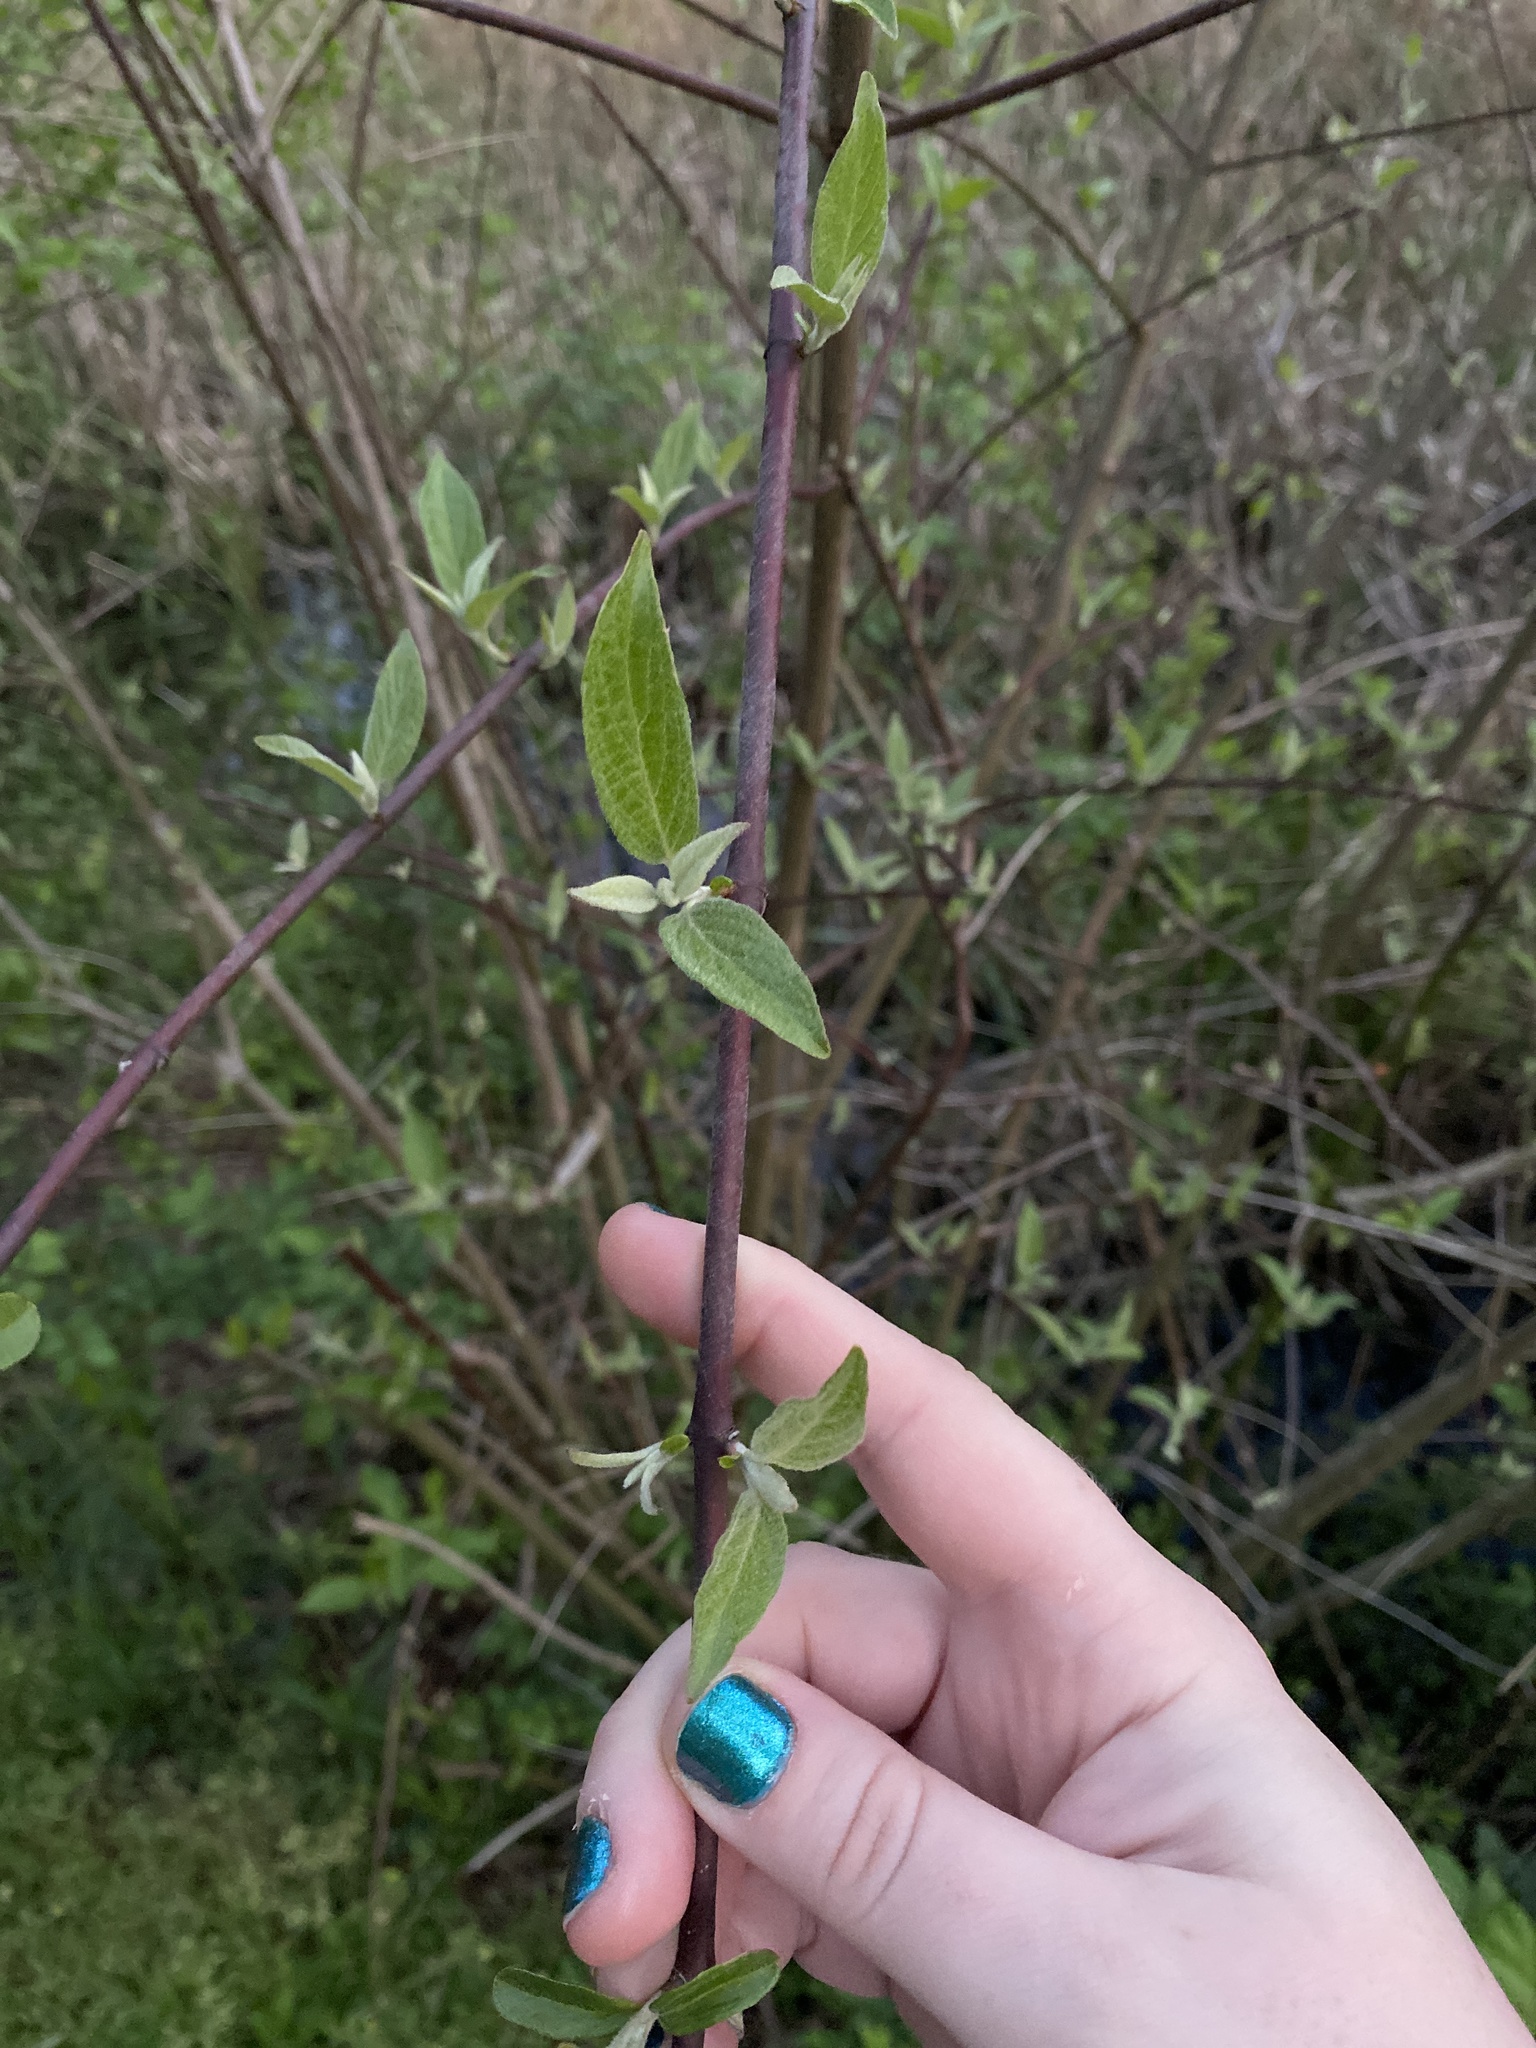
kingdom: Plantae
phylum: Tracheophyta
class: Magnoliopsida
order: Cornales
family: Cornaceae
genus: Cornus
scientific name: Cornus amomum
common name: Silky dogwood
